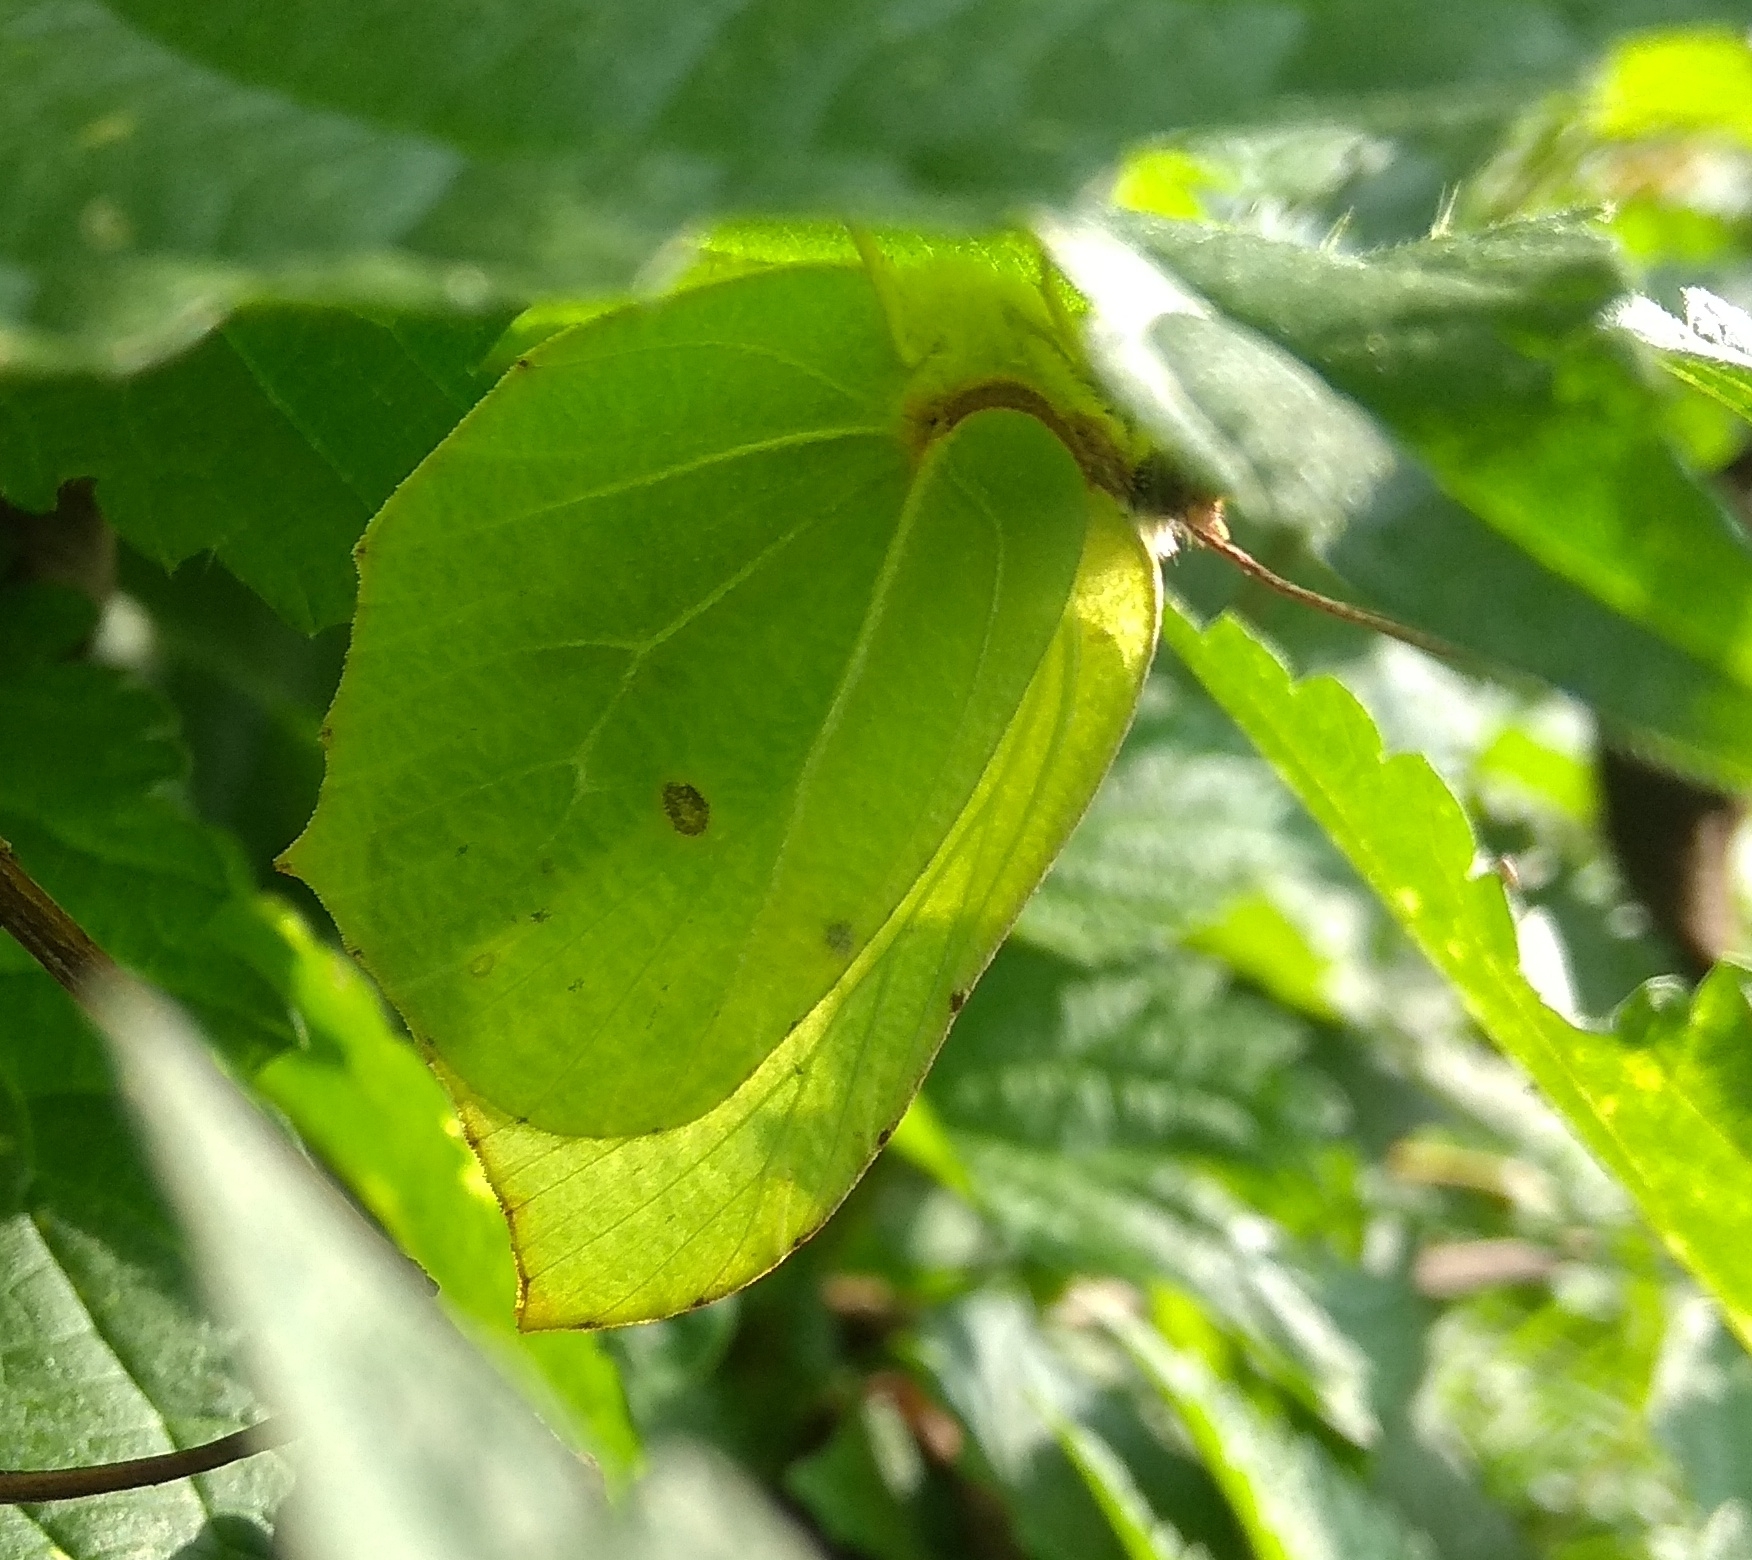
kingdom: Animalia
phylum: Arthropoda
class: Insecta
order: Lepidoptera
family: Pieridae
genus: Gonepteryx
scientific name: Gonepteryx rhamni
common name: Brimstone
